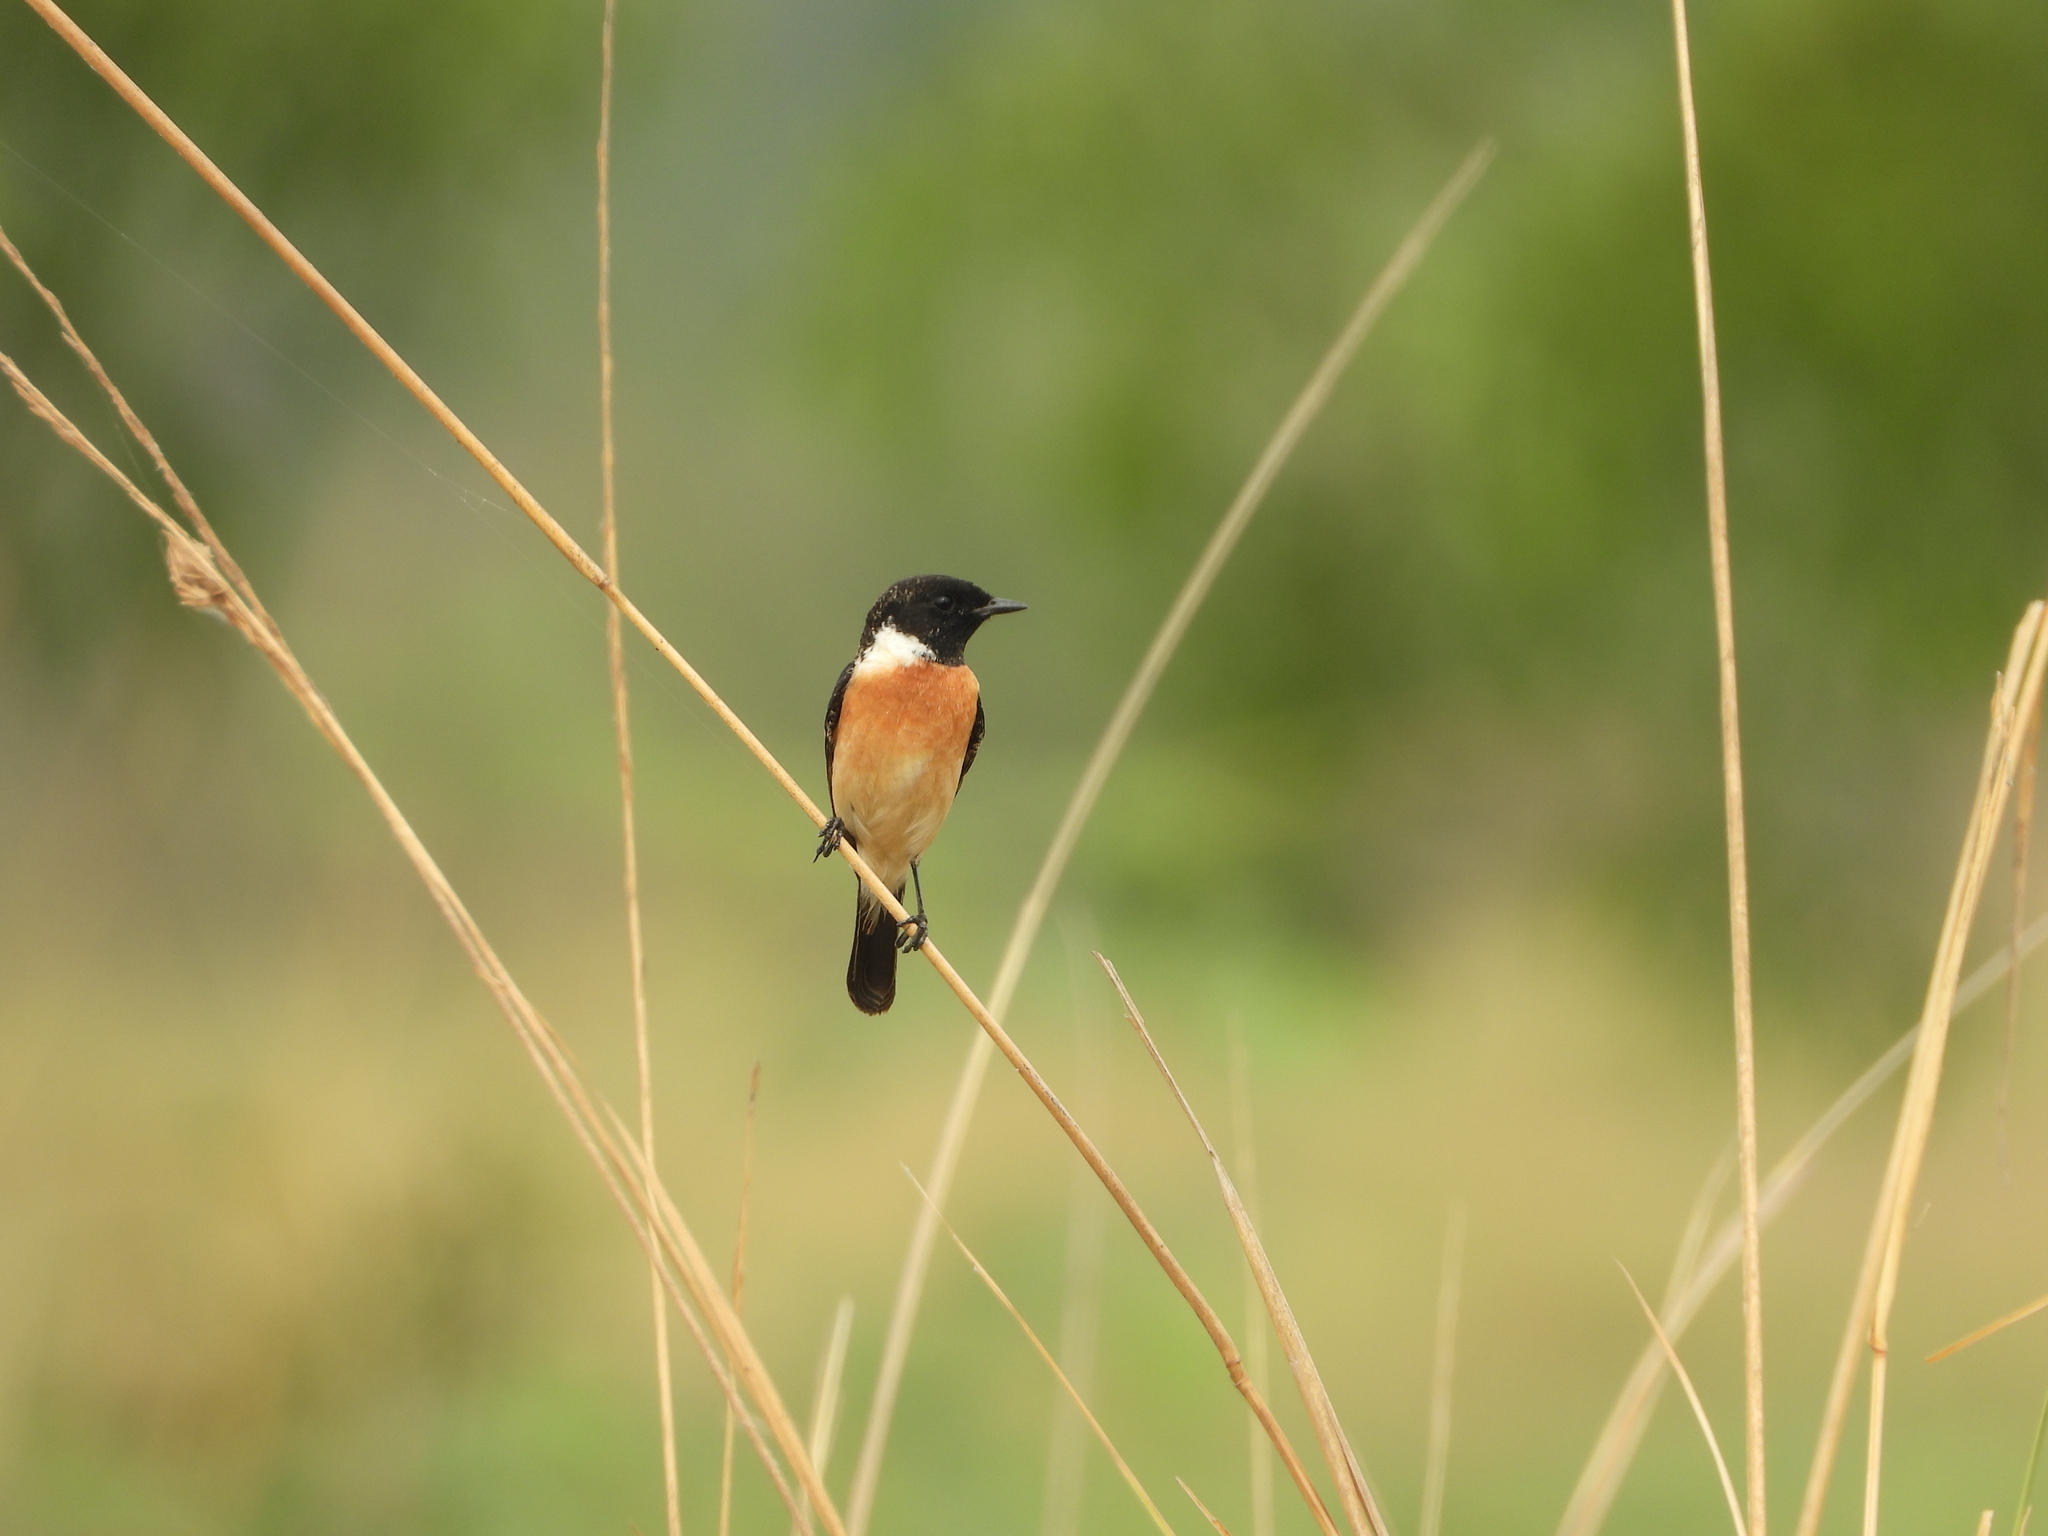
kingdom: Animalia
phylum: Chordata
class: Aves
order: Passeriformes
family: Muscicapidae
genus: Saxicola
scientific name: Saxicola stejnegeri
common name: Stejneger's stonechat
